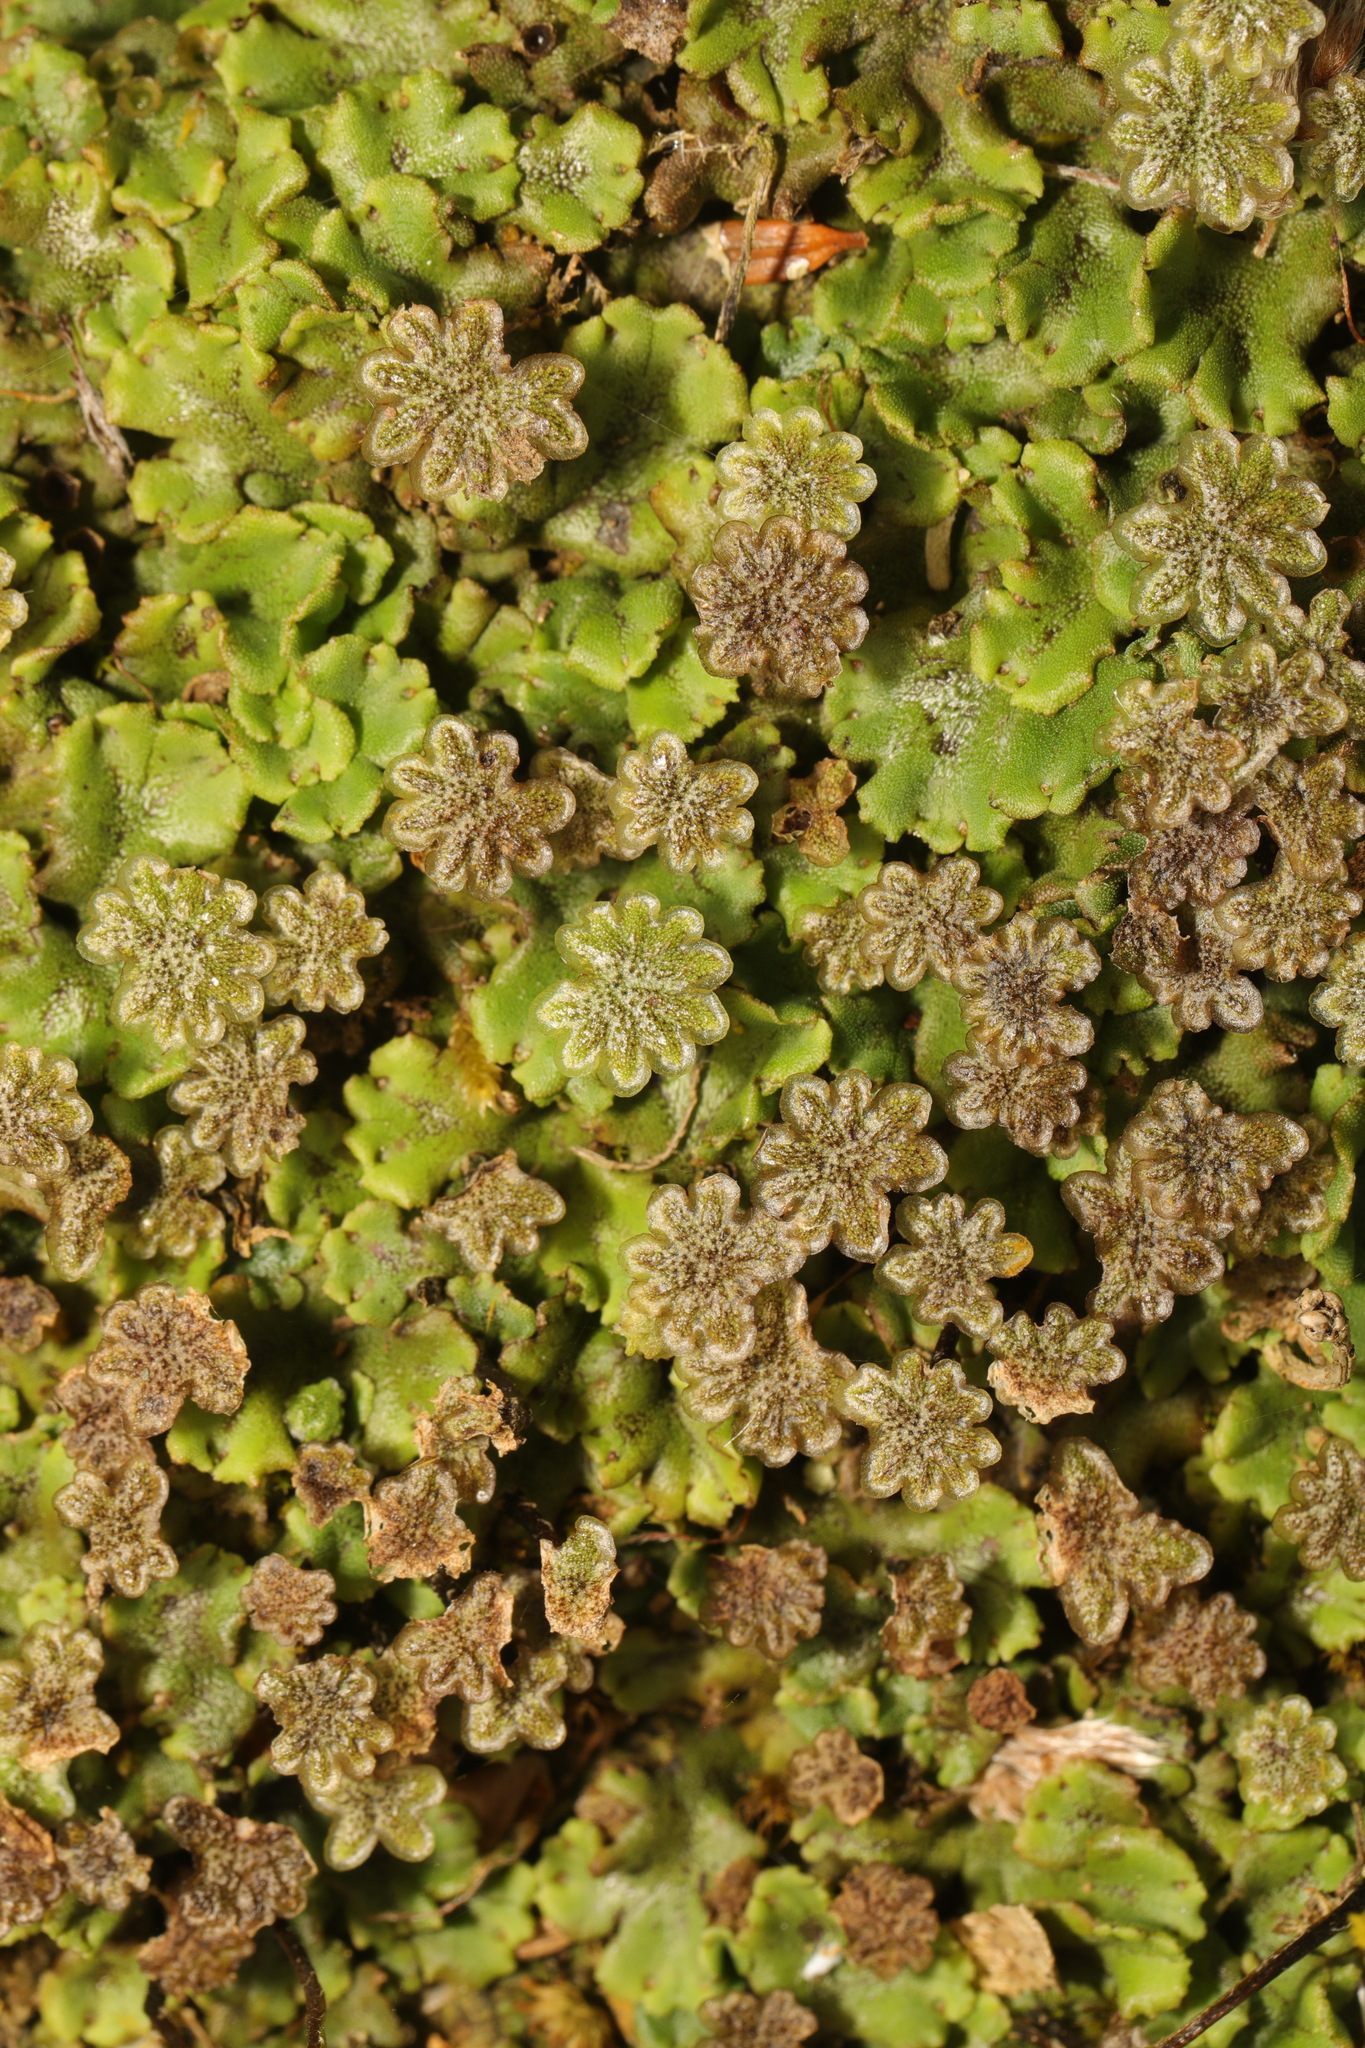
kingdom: Plantae
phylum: Marchantiophyta
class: Marchantiopsida
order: Marchantiales
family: Marchantiaceae
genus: Marchantia
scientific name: Marchantia polymorpha
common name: Common liverwort
